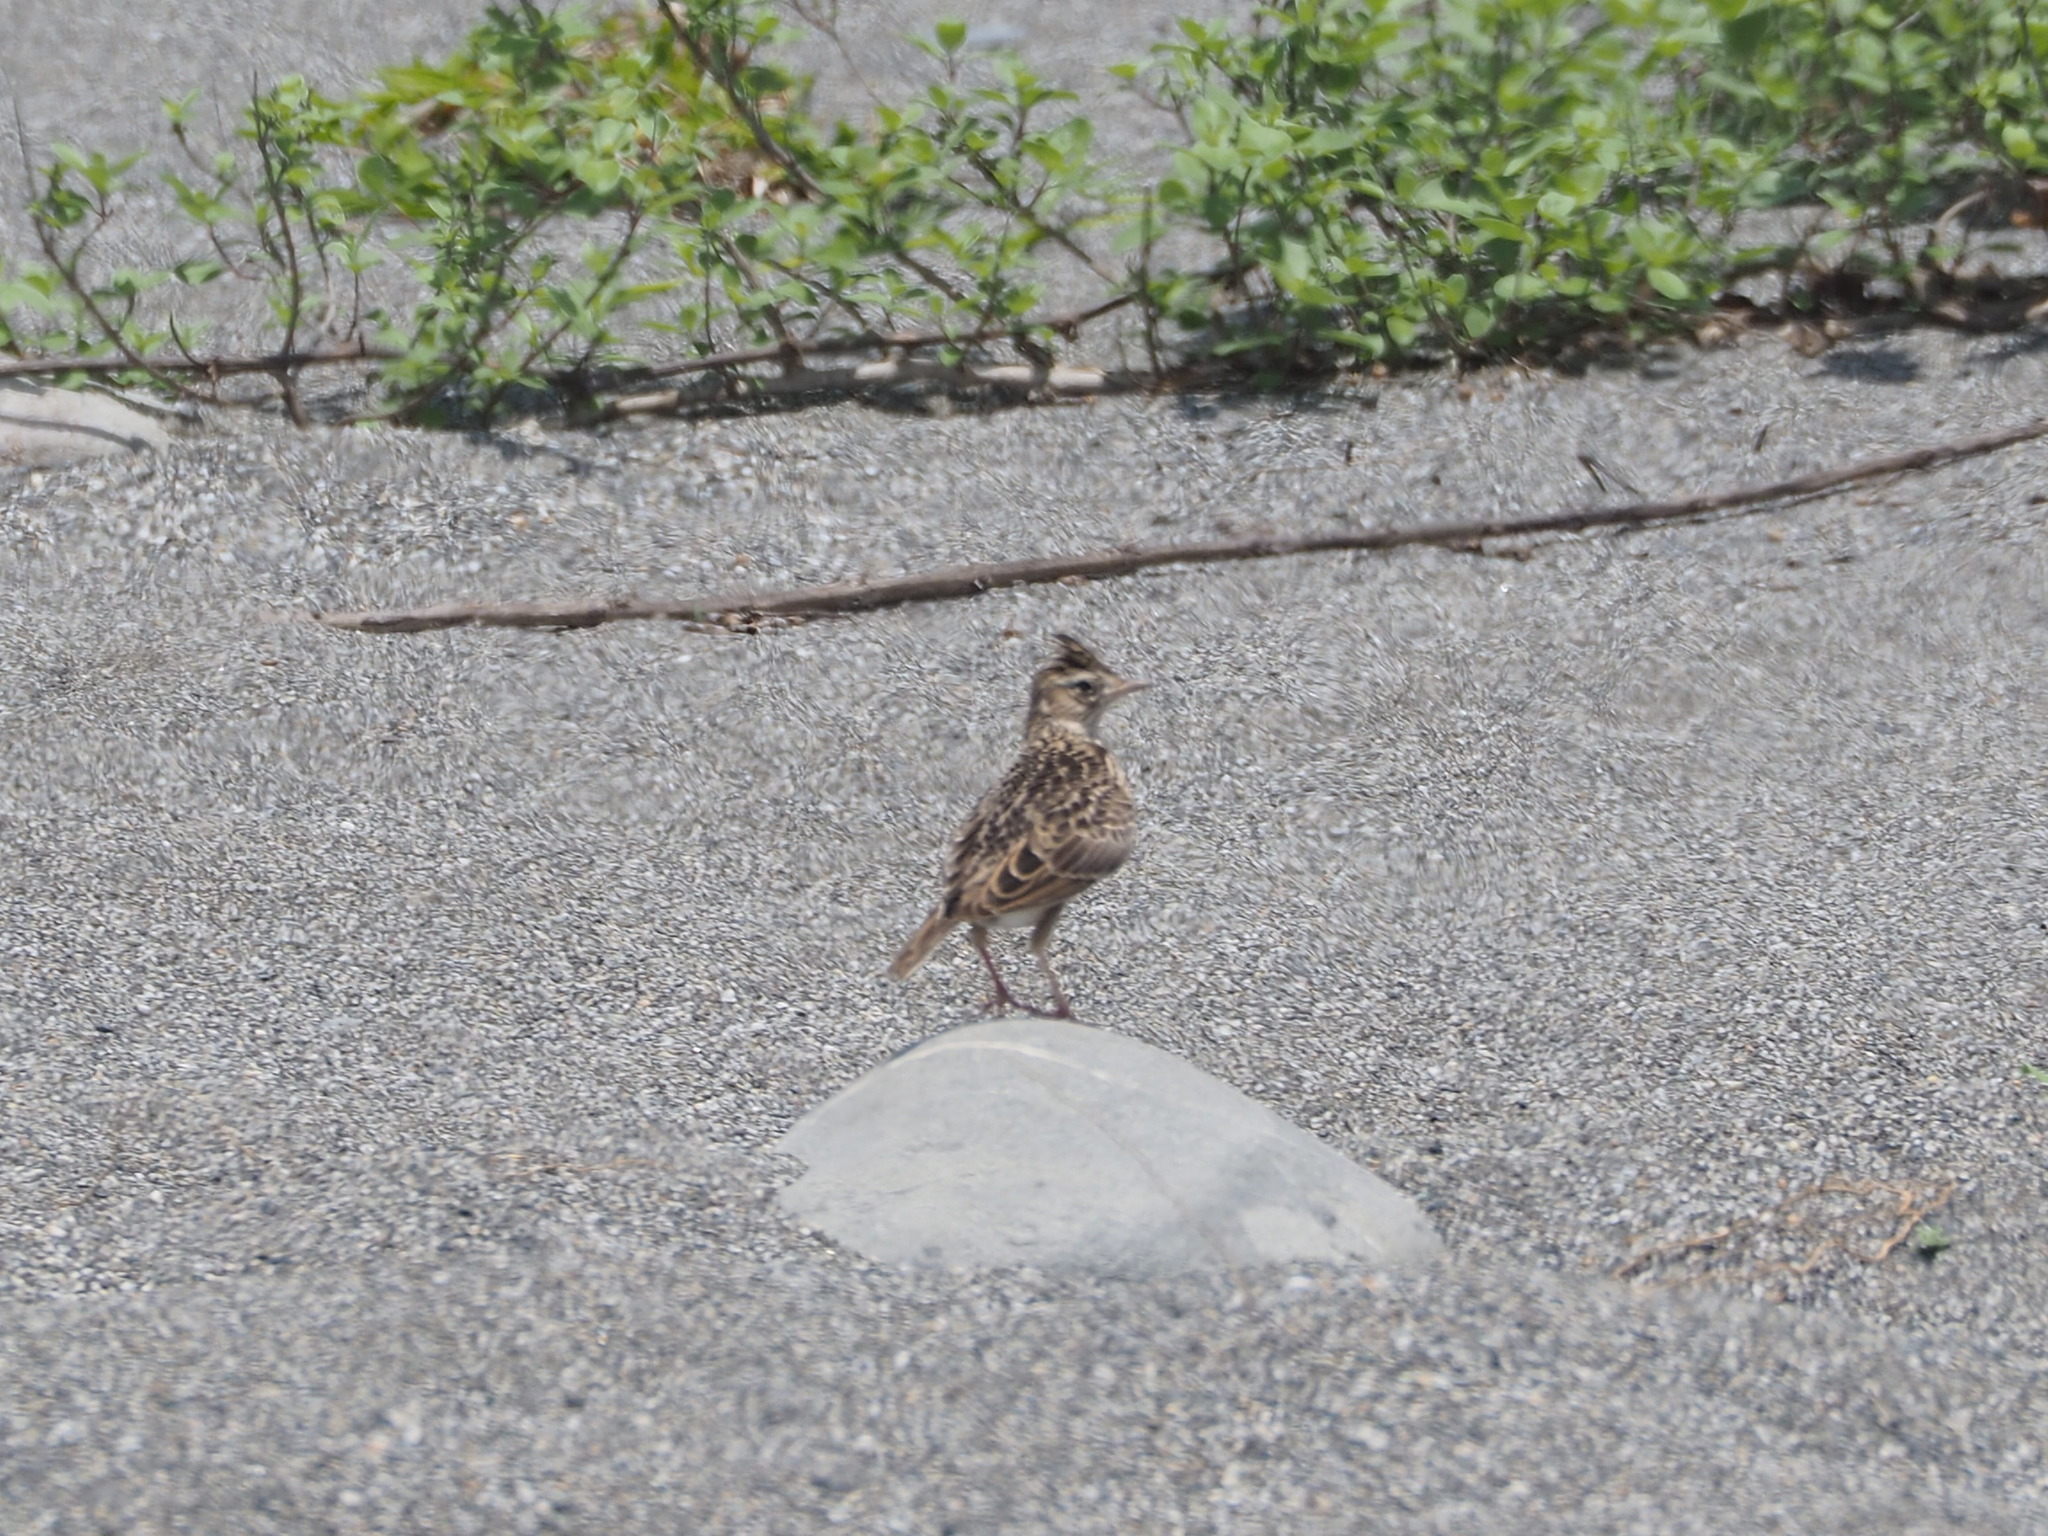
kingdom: Animalia
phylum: Chordata
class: Aves
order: Passeriformes
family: Alaudidae
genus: Alauda
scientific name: Alauda gulgula
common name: Oriental skylark
